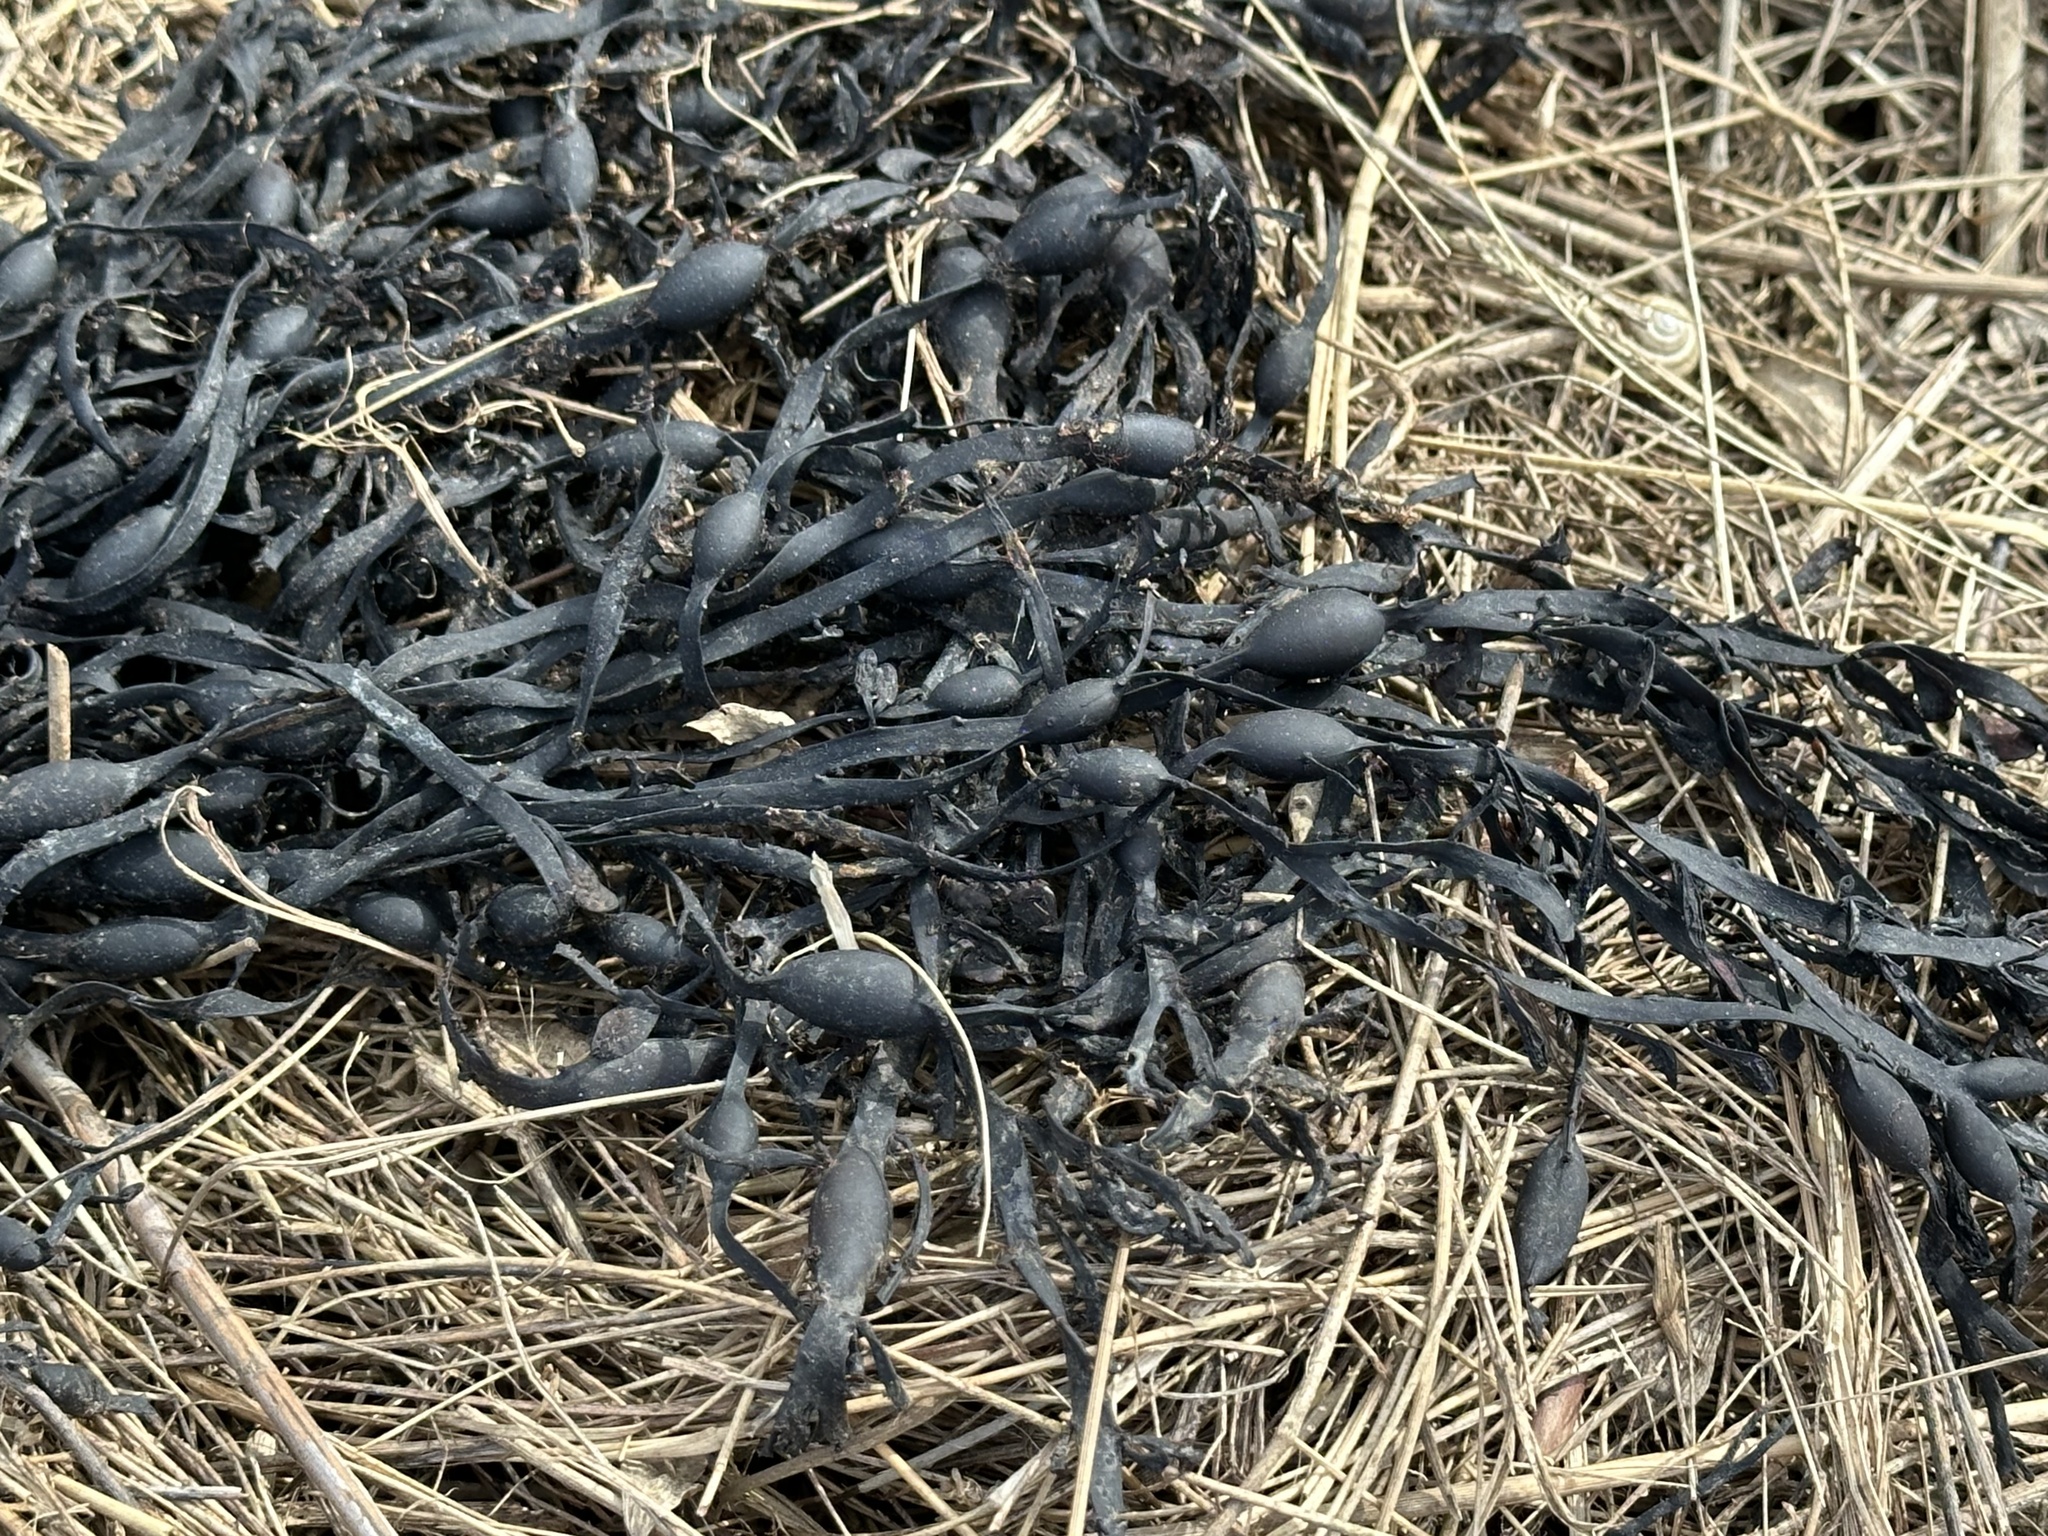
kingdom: Chromista
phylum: Ochrophyta
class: Phaeophyceae
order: Fucales
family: Fucaceae
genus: Ascophyllum
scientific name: Ascophyllum nodosum
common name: Knotted wrack
